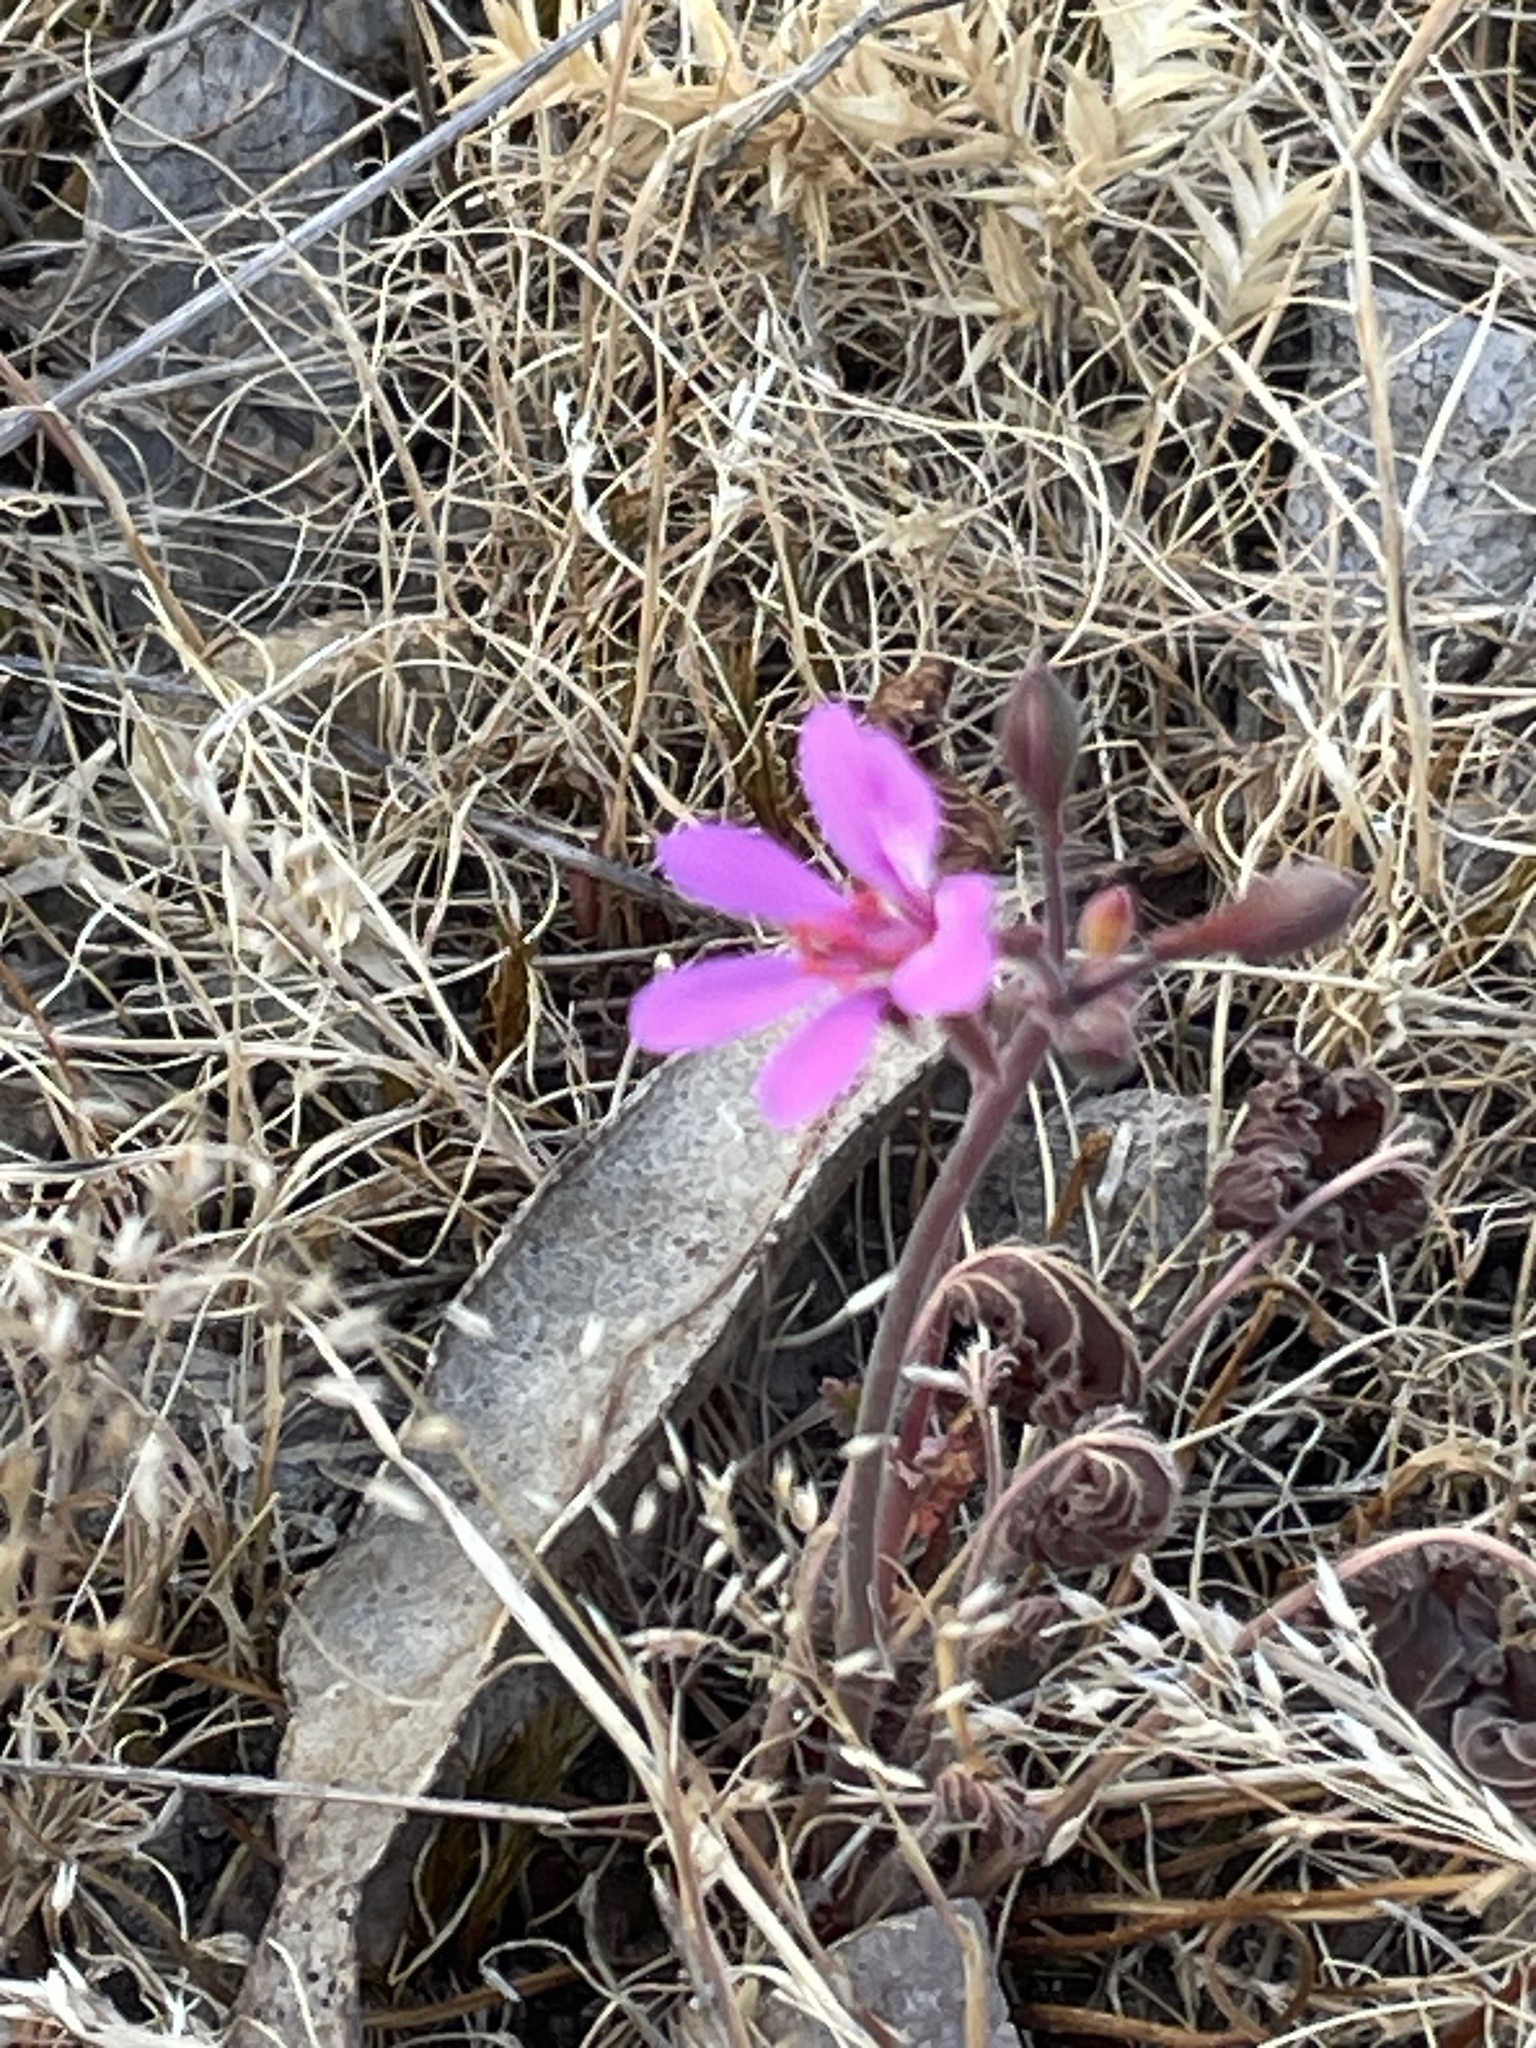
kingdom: Plantae
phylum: Tracheophyta
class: Magnoliopsida
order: Geraniales
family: Geraniaceae
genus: Pelargonium
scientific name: Pelargonium rodneyanum
